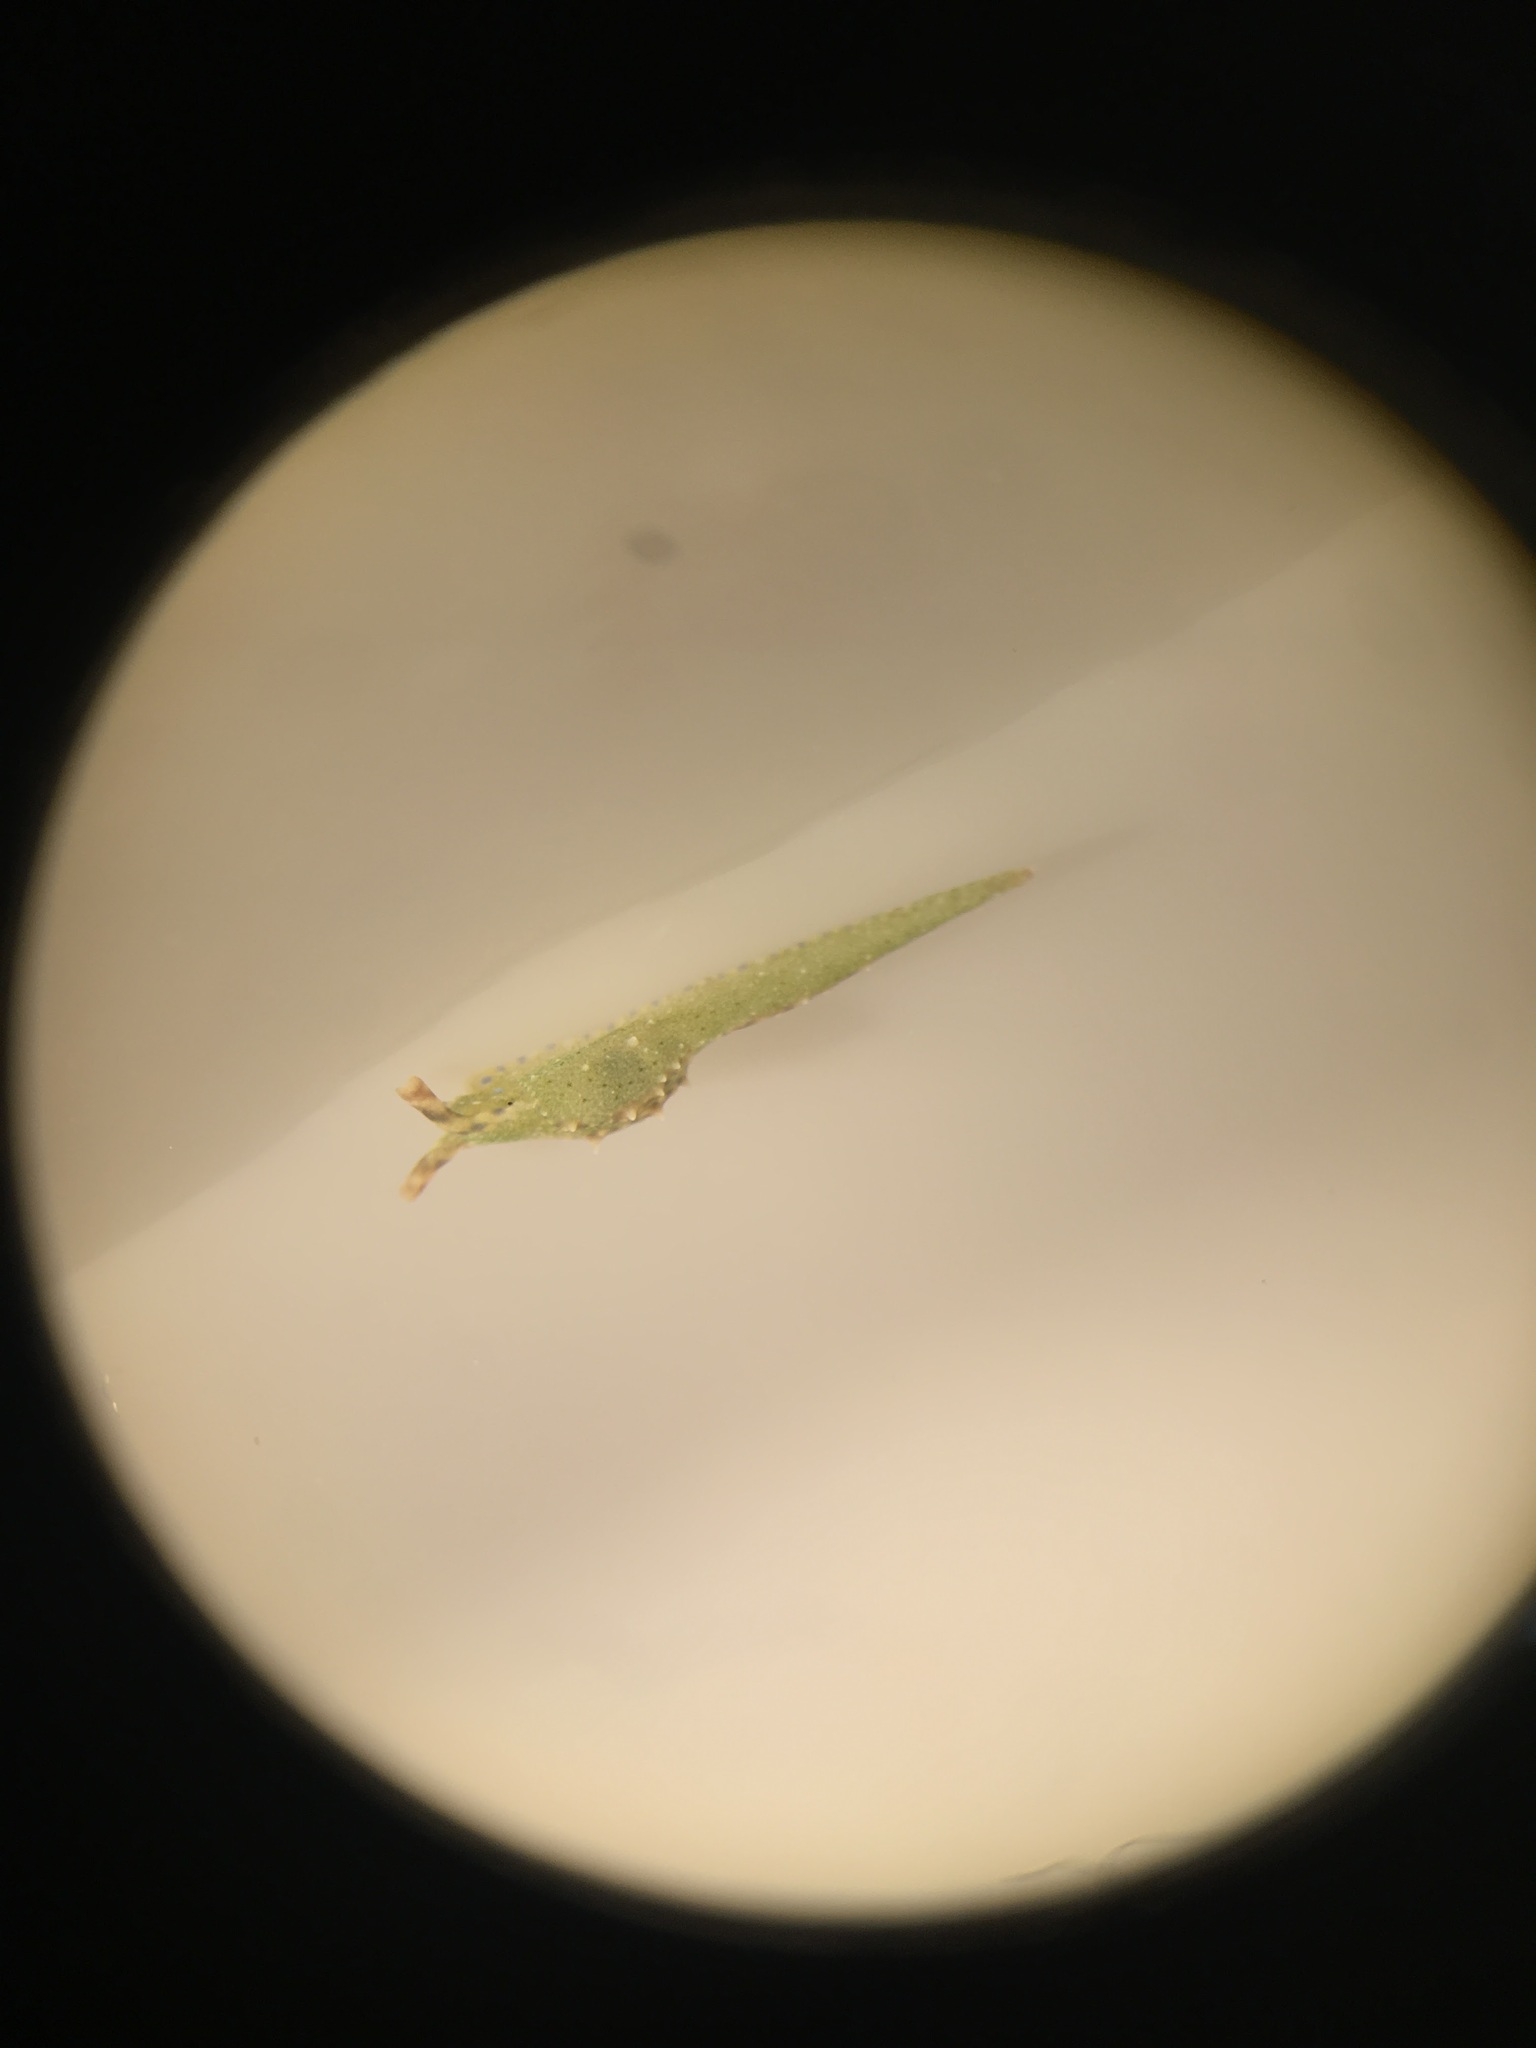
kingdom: Animalia
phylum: Mollusca
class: Gastropoda
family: Oxynoidae
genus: Oxynoe
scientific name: Oxynoe antillarum
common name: Antilles oxynoe
